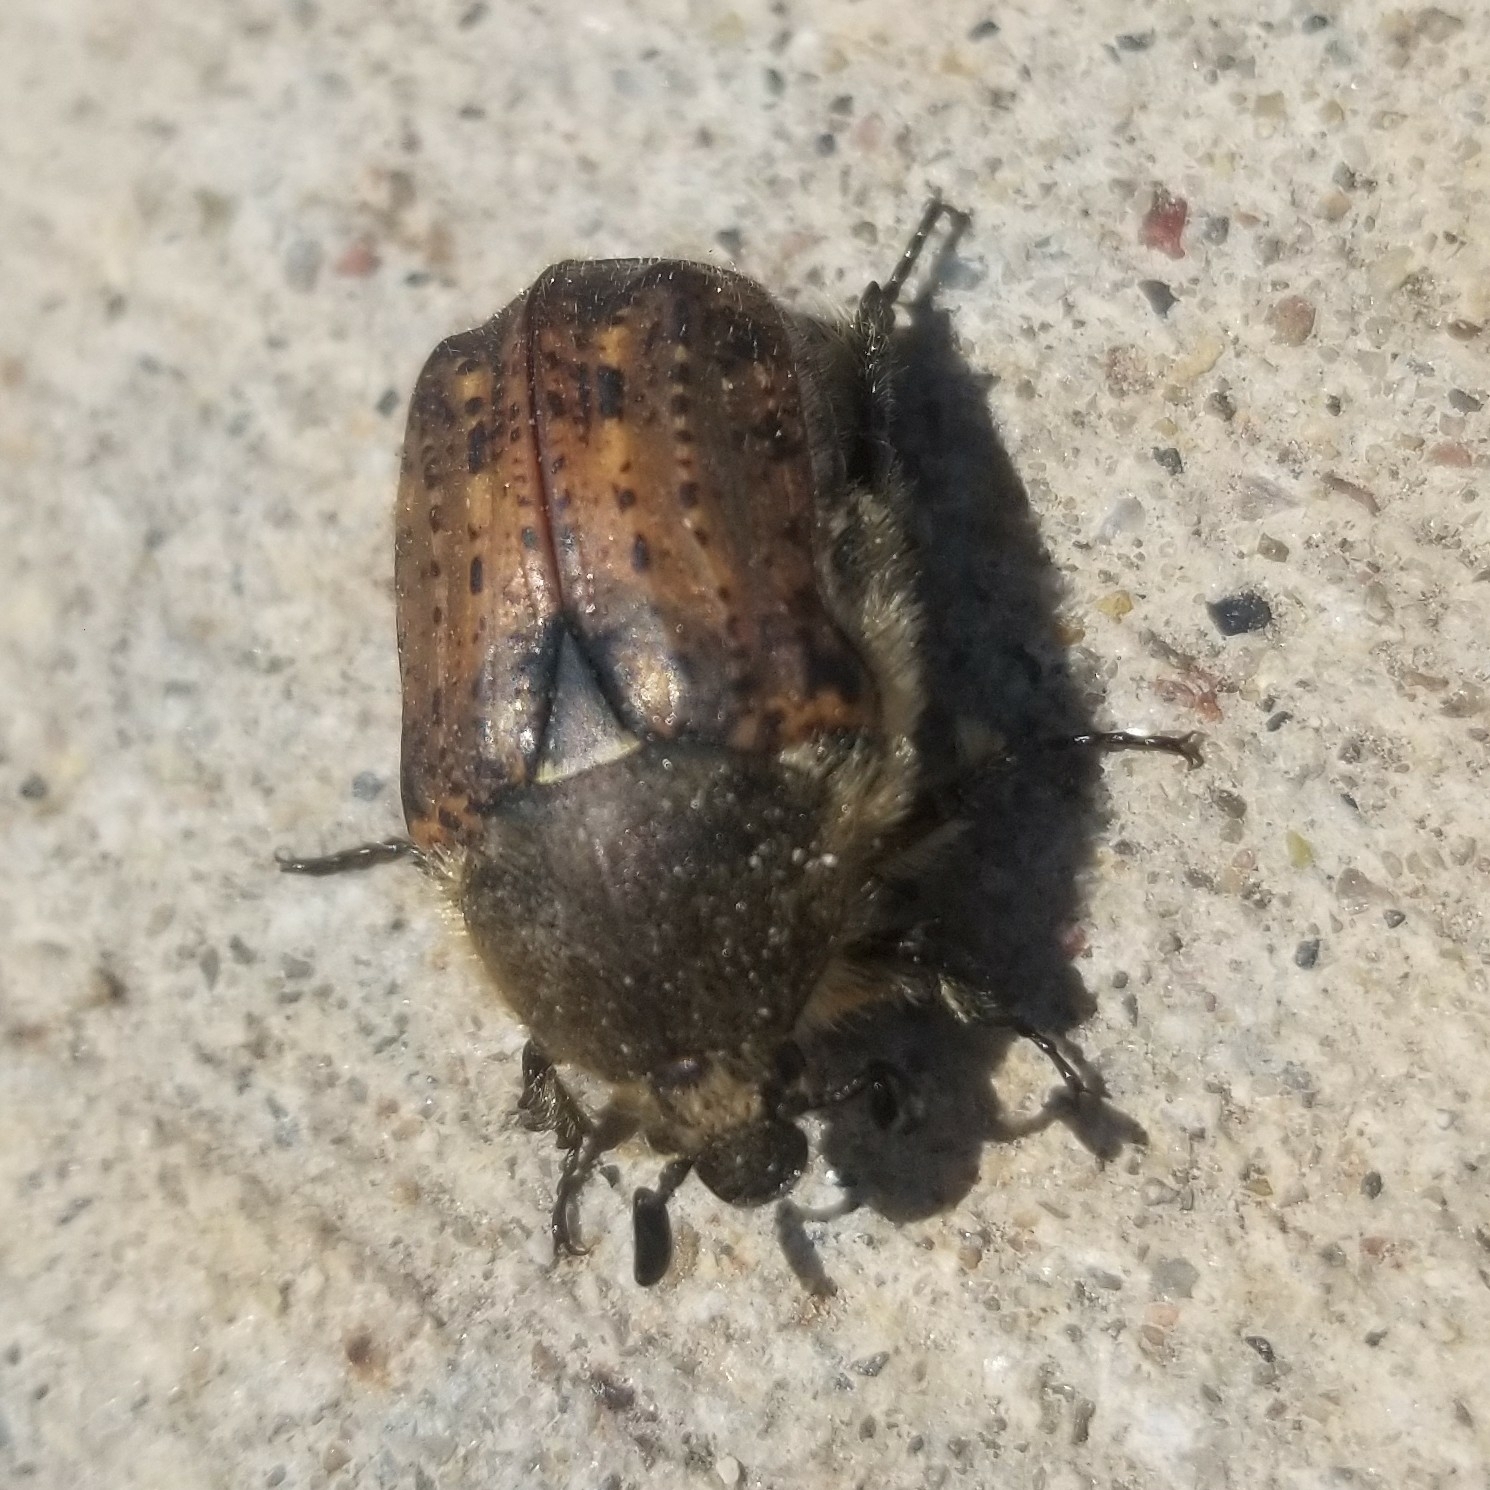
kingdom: Animalia
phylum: Arthropoda
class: Insecta
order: Coleoptera
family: Scarabaeidae
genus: Euphoria
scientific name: Euphoria inda
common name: Bumble flower beetle
